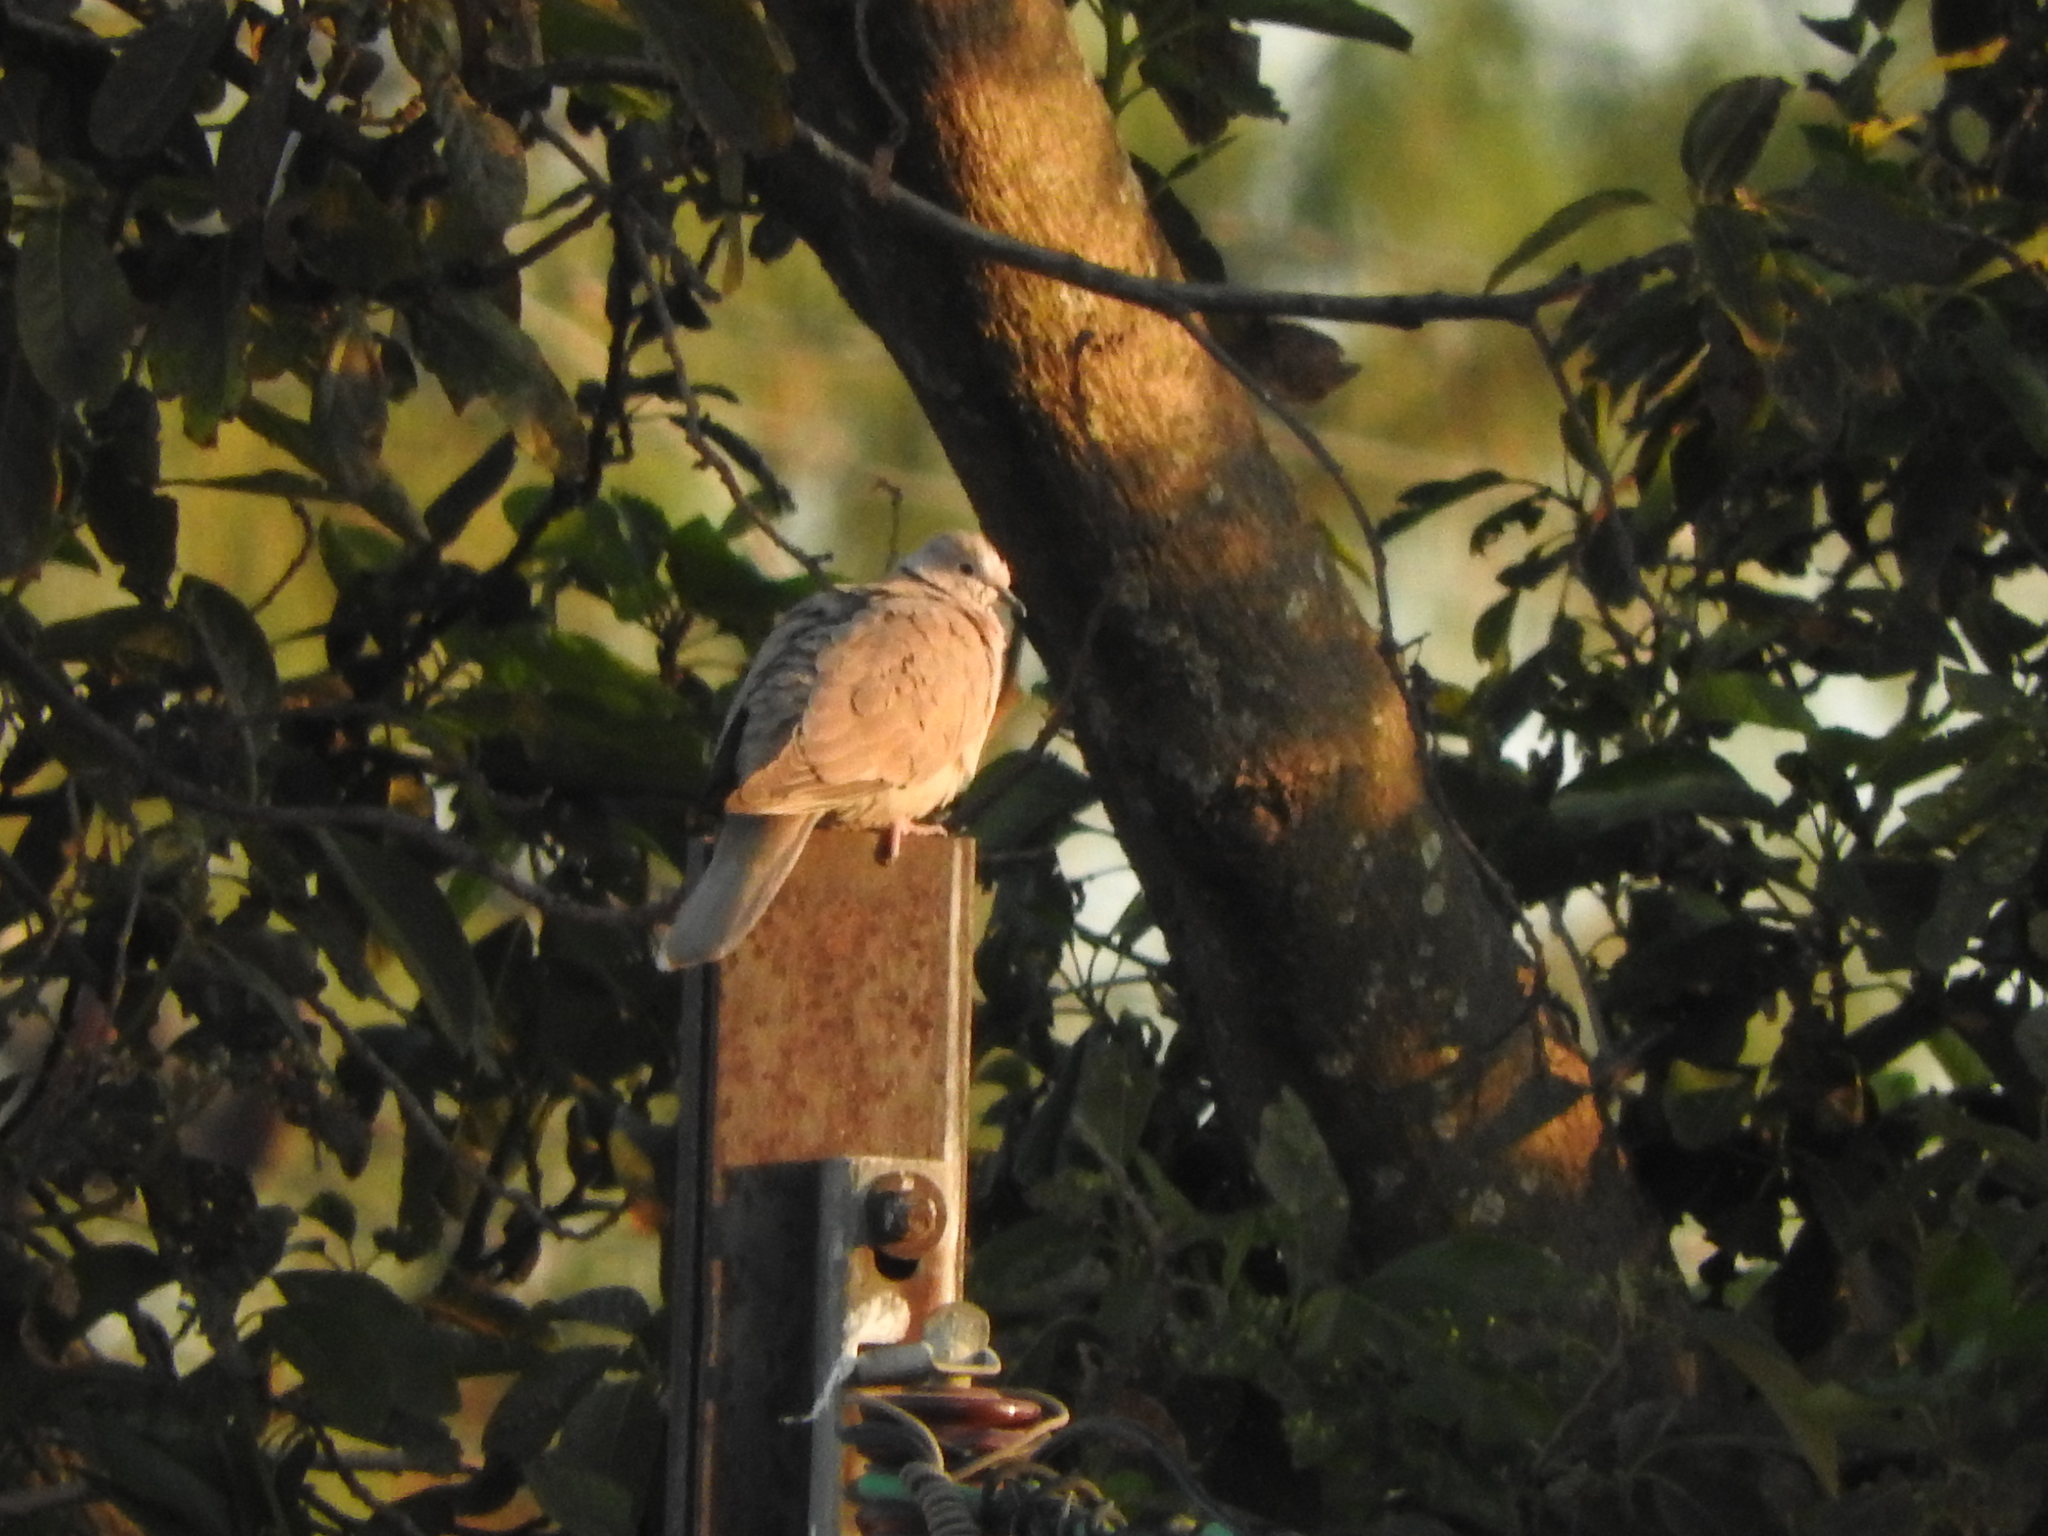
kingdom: Animalia
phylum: Chordata
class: Aves
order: Columbiformes
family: Columbidae
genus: Streptopelia
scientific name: Streptopelia decaocto
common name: Eurasian collared dove
